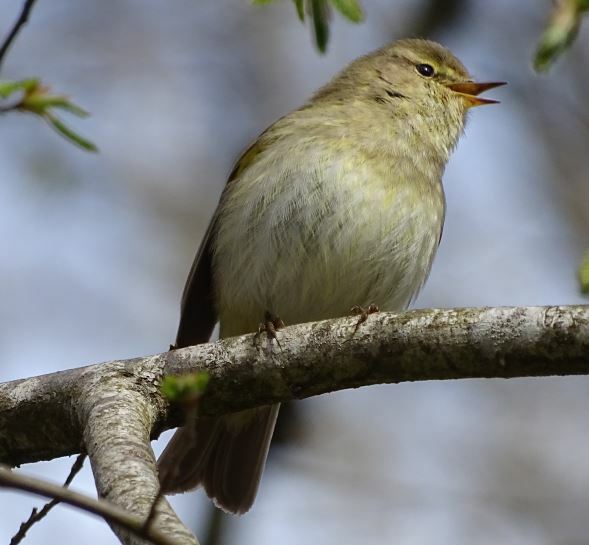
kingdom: Animalia
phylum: Chordata
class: Aves
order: Passeriformes
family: Phylloscopidae
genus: Phylloscopus
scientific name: Phylloscopus collybita
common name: Common chiffchaff
